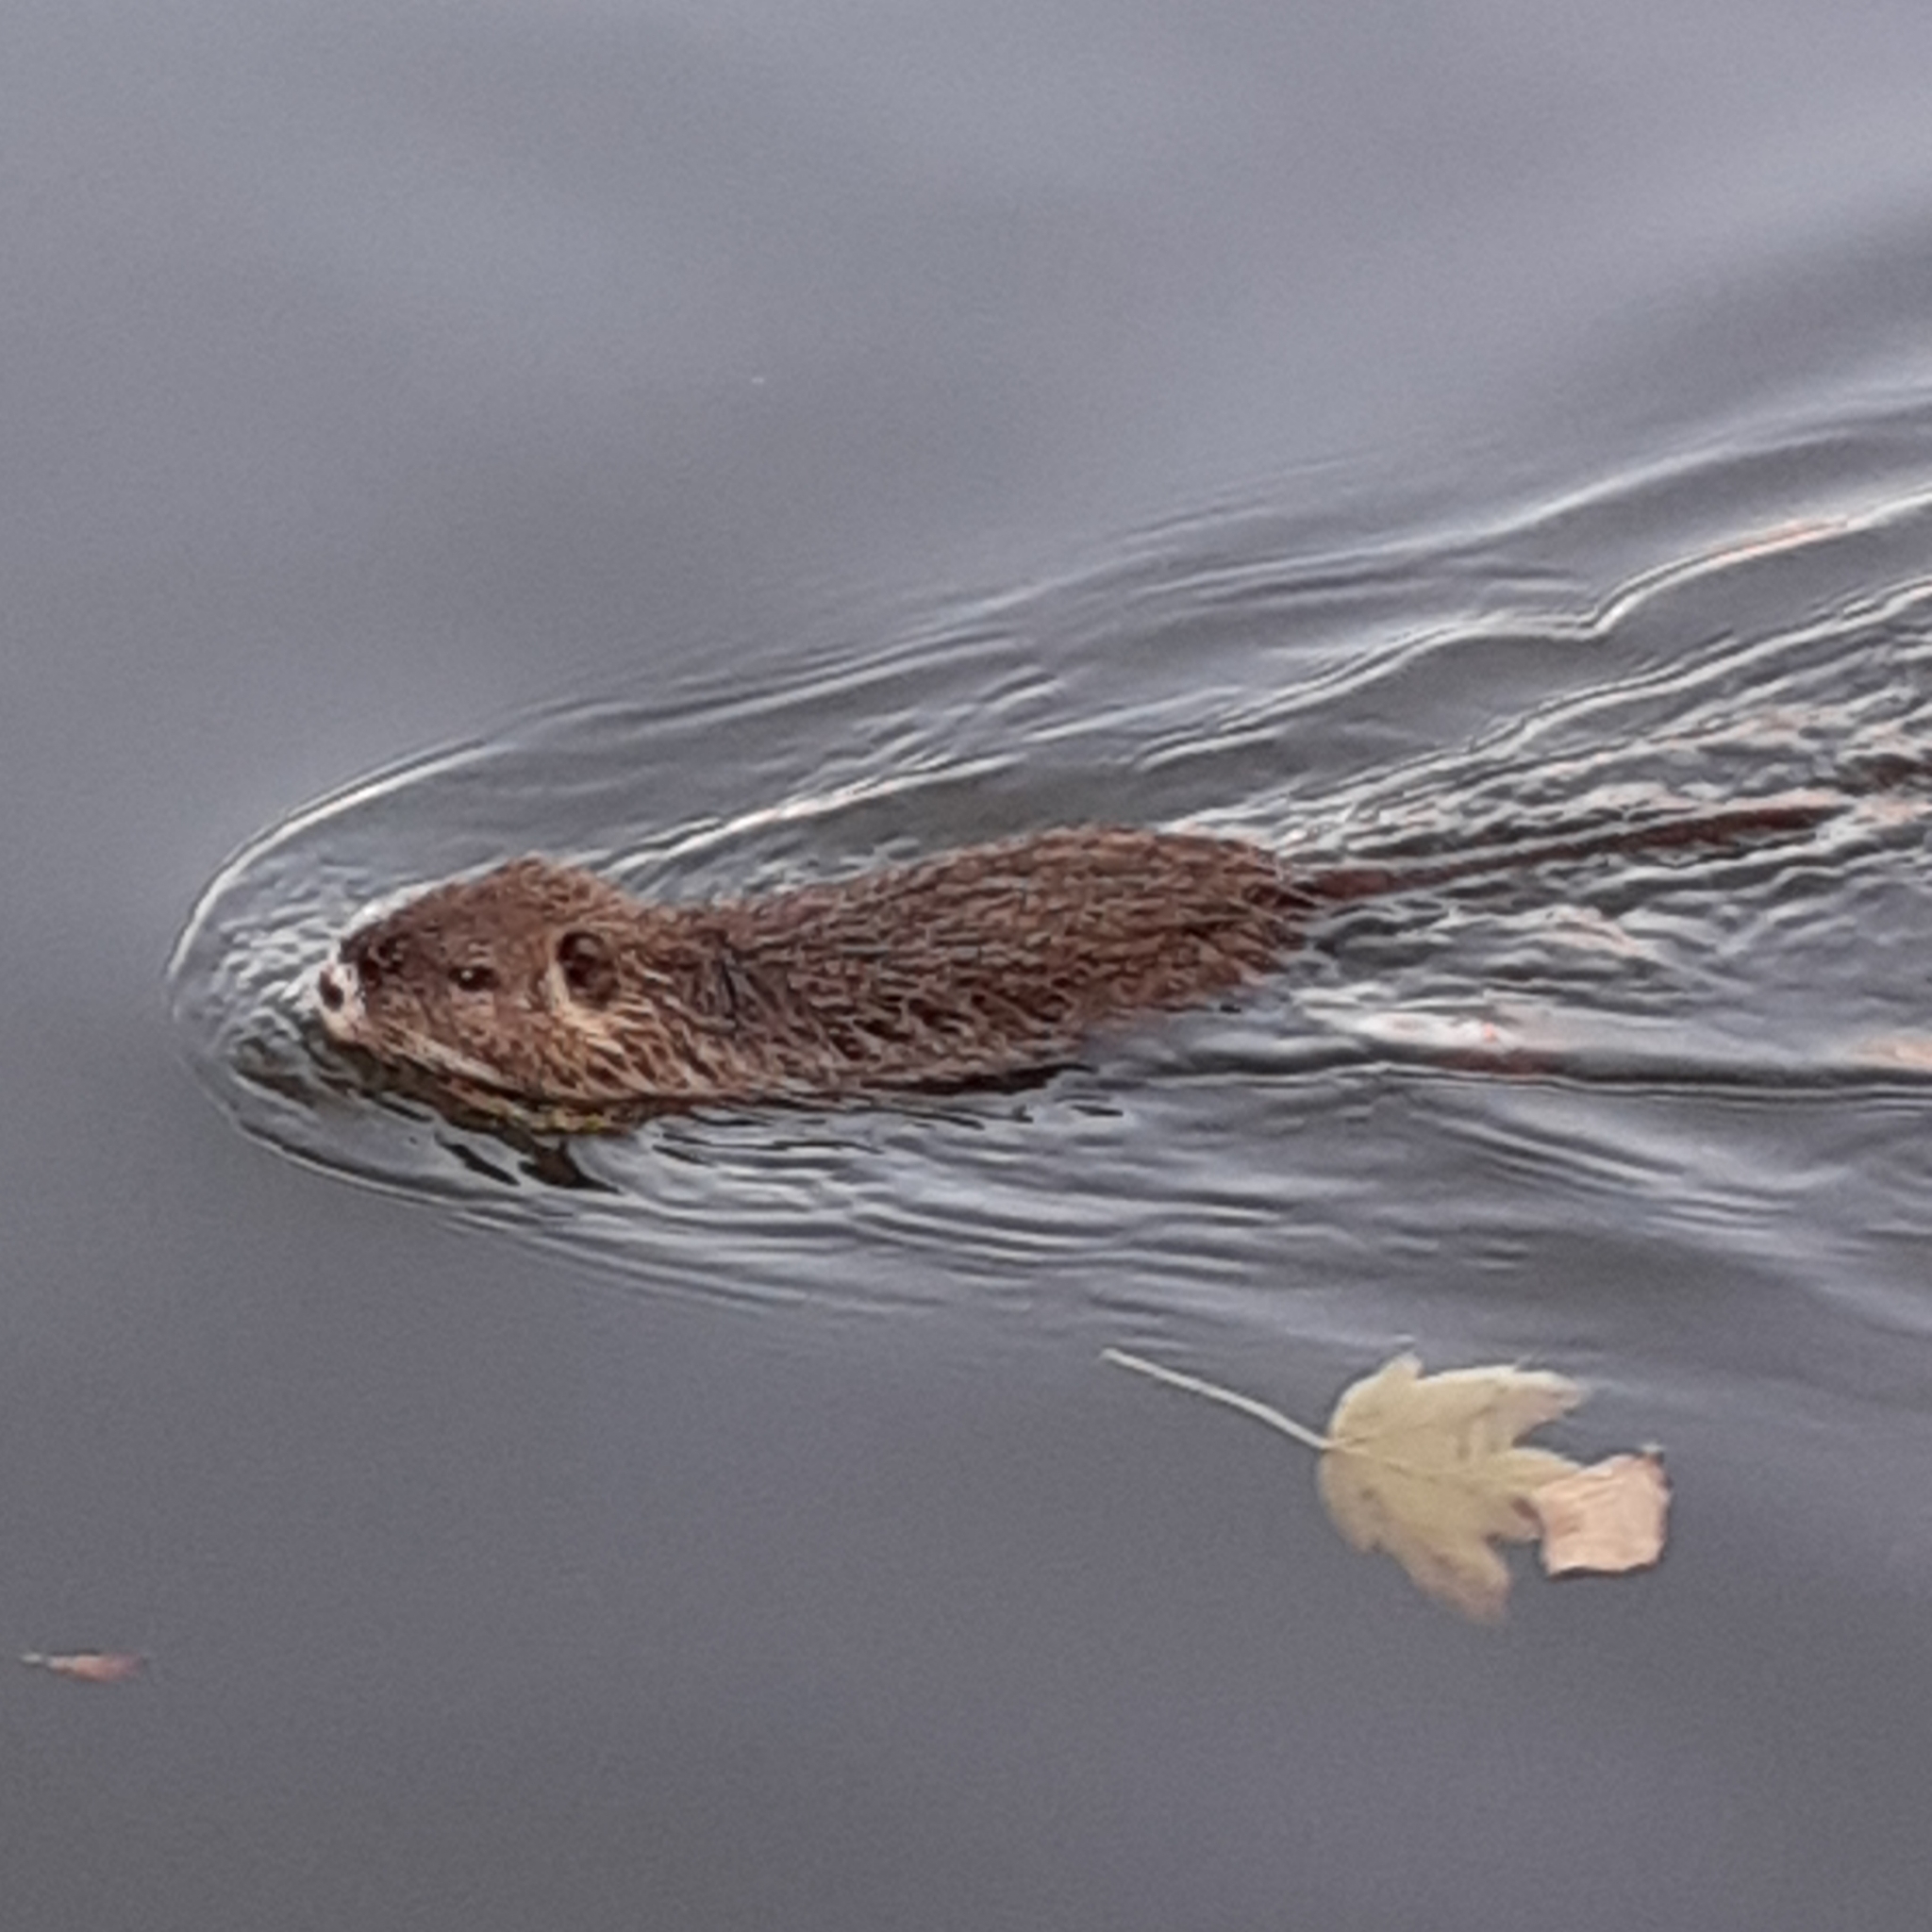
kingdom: Animalia
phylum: Chordata
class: Mammalia
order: Rodentia
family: Myocastoridae
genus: Myocastor
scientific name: Myocastor coypus
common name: Coypu
